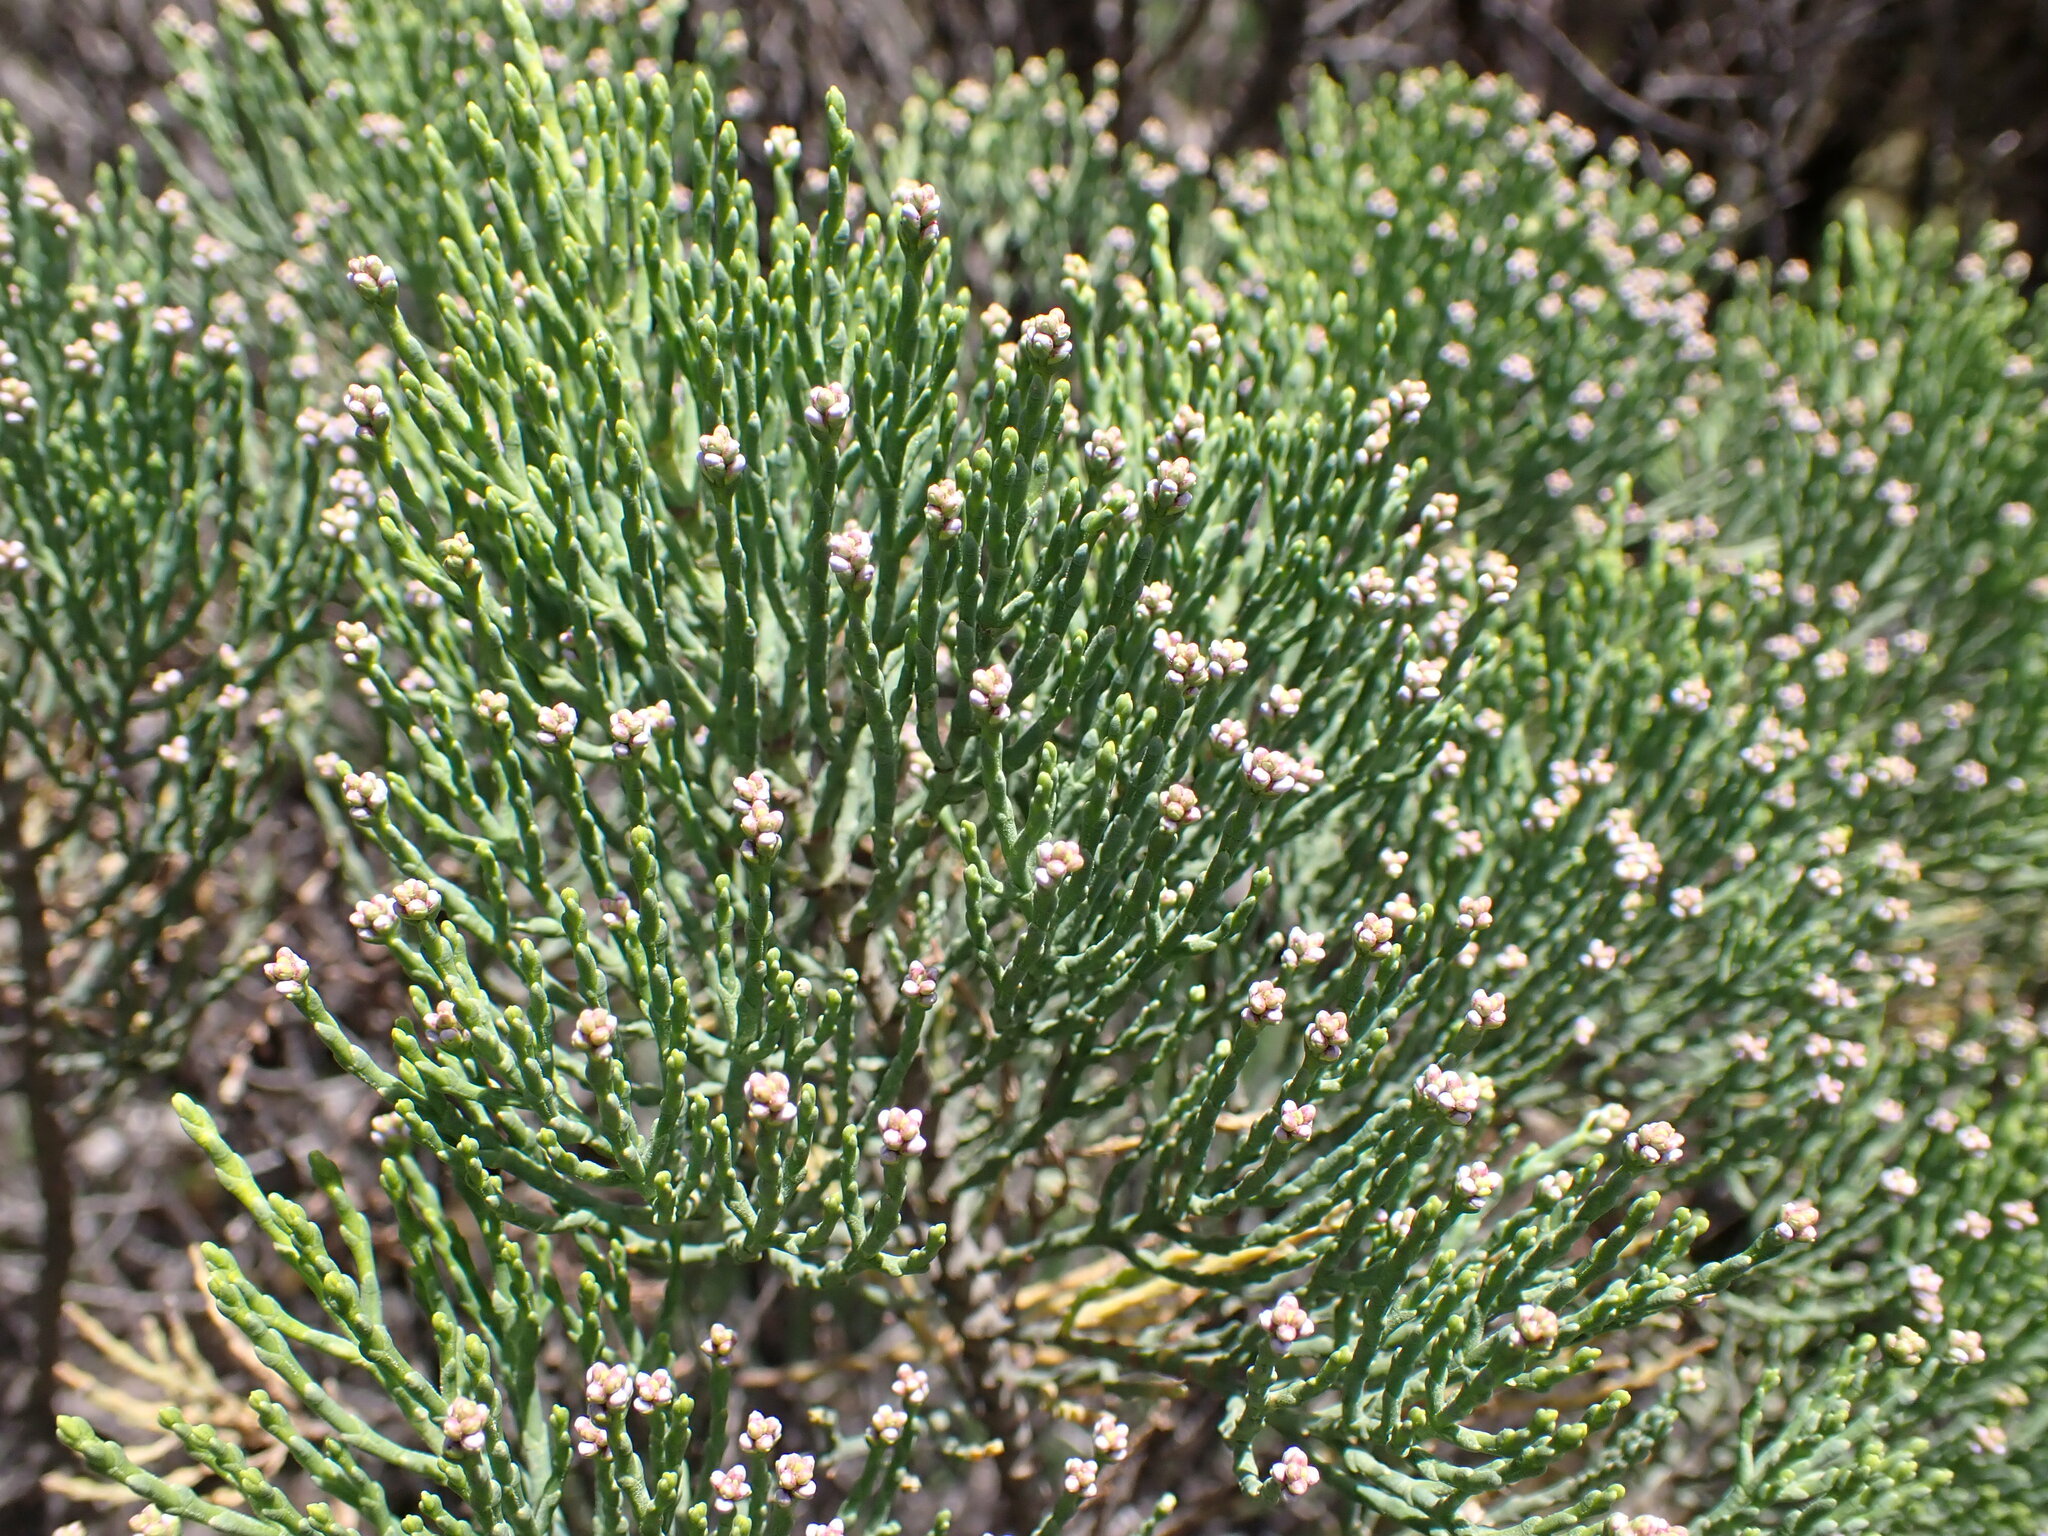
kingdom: Plantae
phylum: Tracheophyta
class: Magnoliopsida
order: Lamiales
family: Plantaginaceae
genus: Veronica
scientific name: Veronica cupressoides
